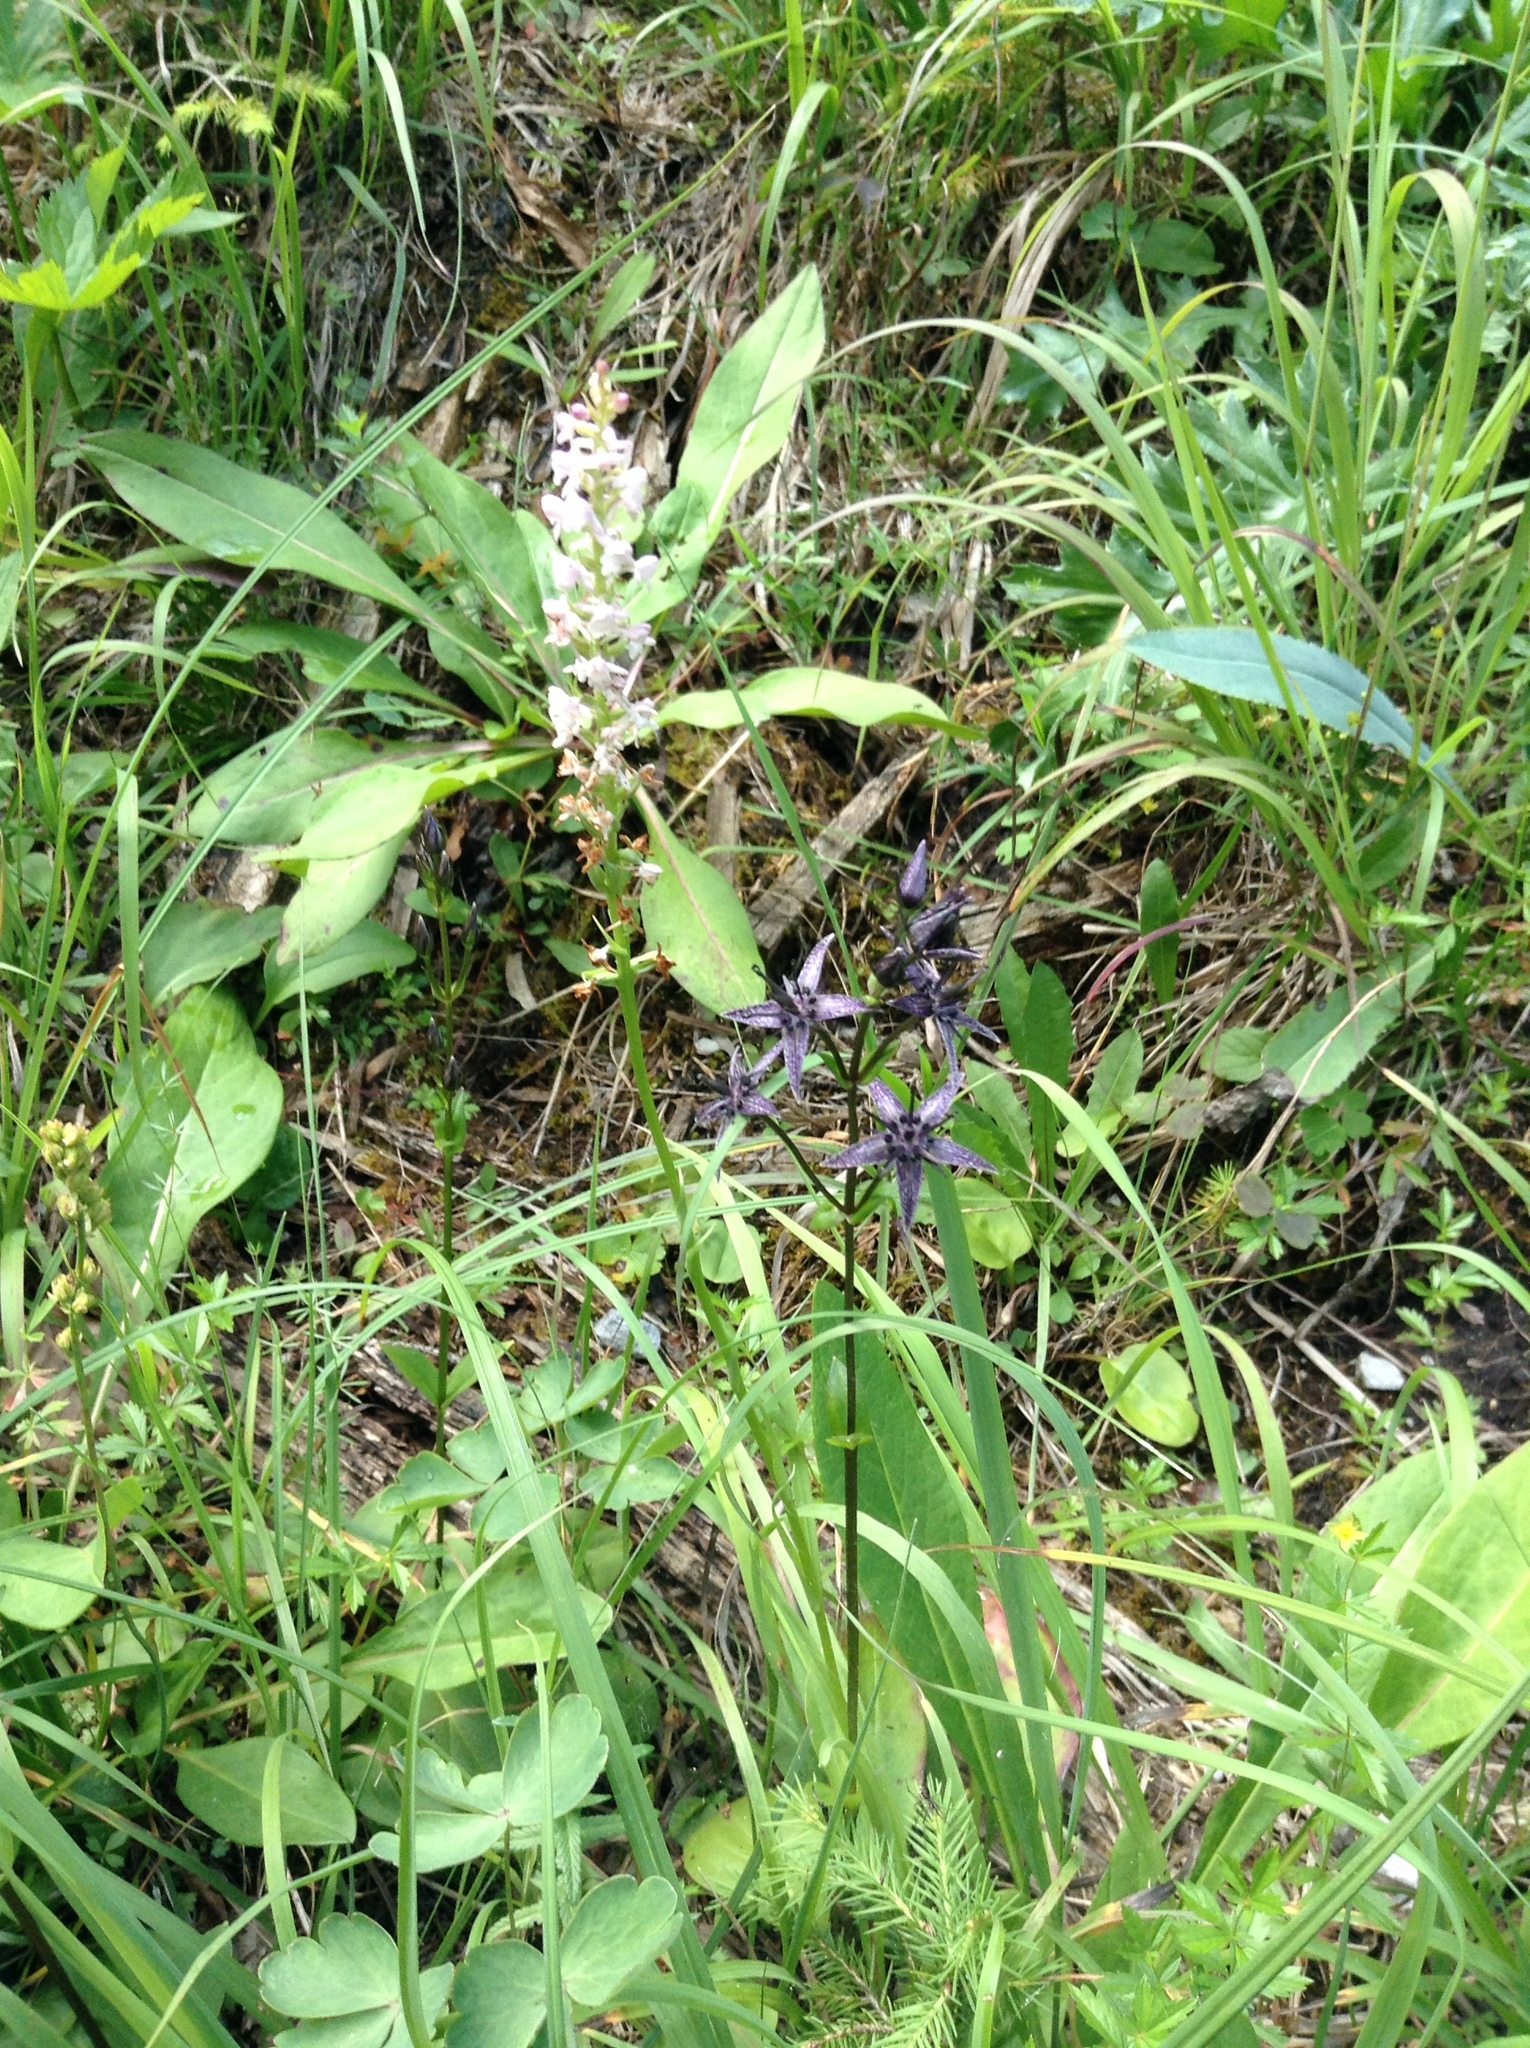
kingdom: Plantae
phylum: Tracheophyta
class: Magnoliopsida
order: Gentianales
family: Gentianaceae
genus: Swertia
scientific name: Swertia perennis
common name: Alpine bog swertia
